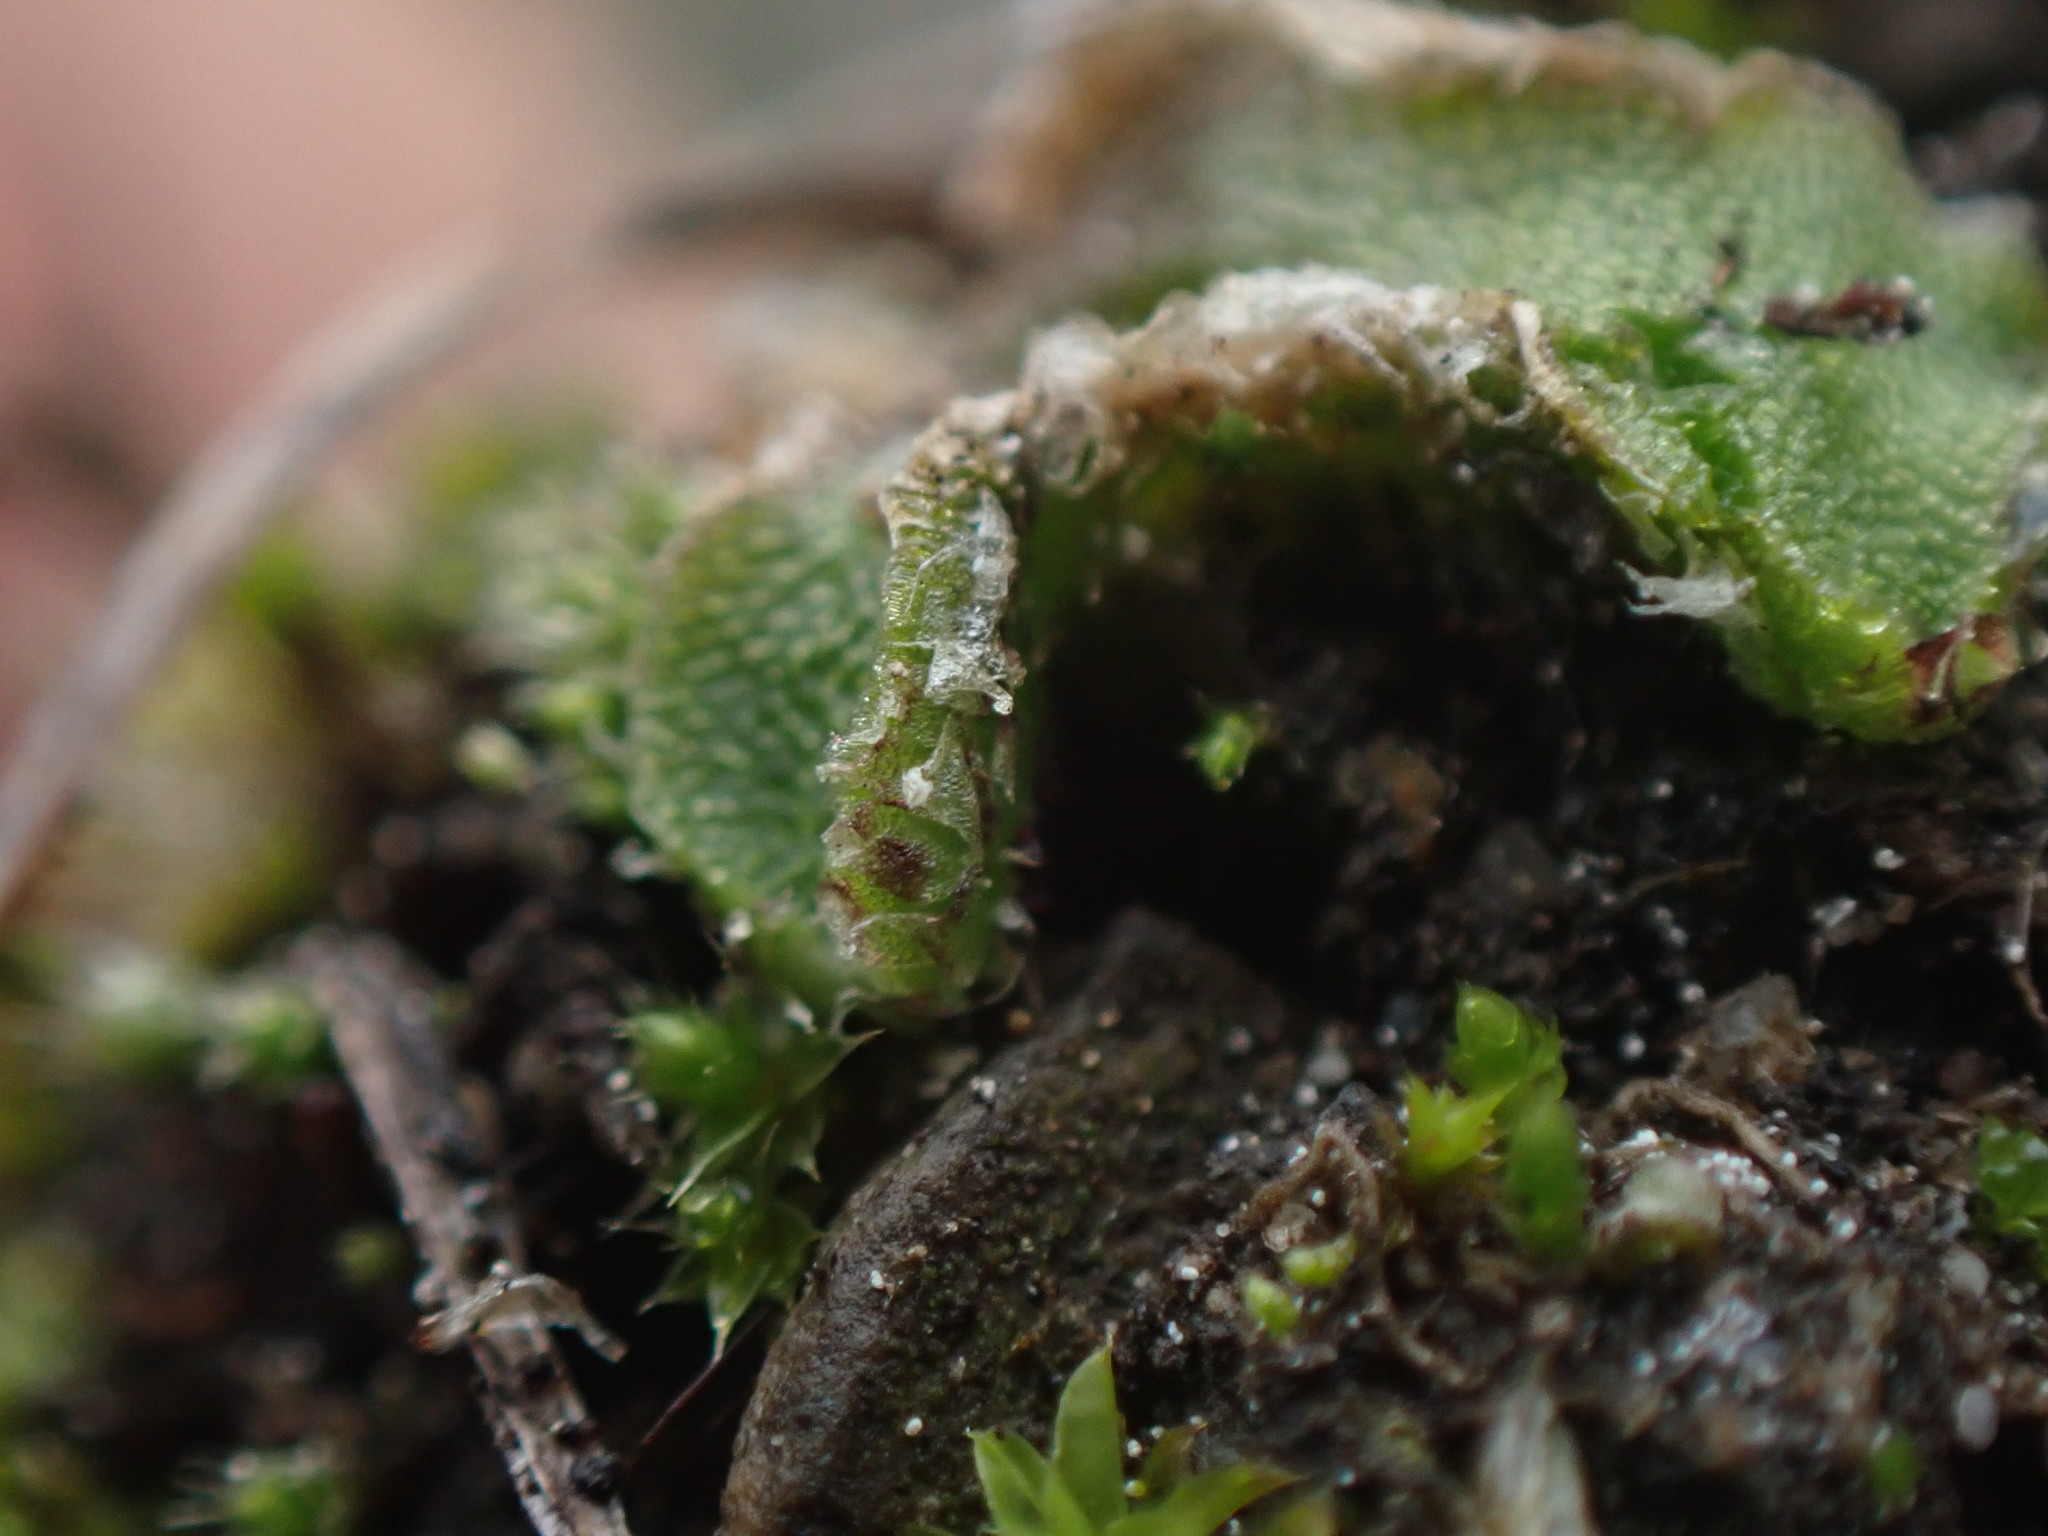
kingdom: Plantae
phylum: Marchantiophyta
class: Marchantiopsida
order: Marchantiales
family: Cleveaceae
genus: Clevea
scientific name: Clevea hyalina
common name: Hyaline liverwort
